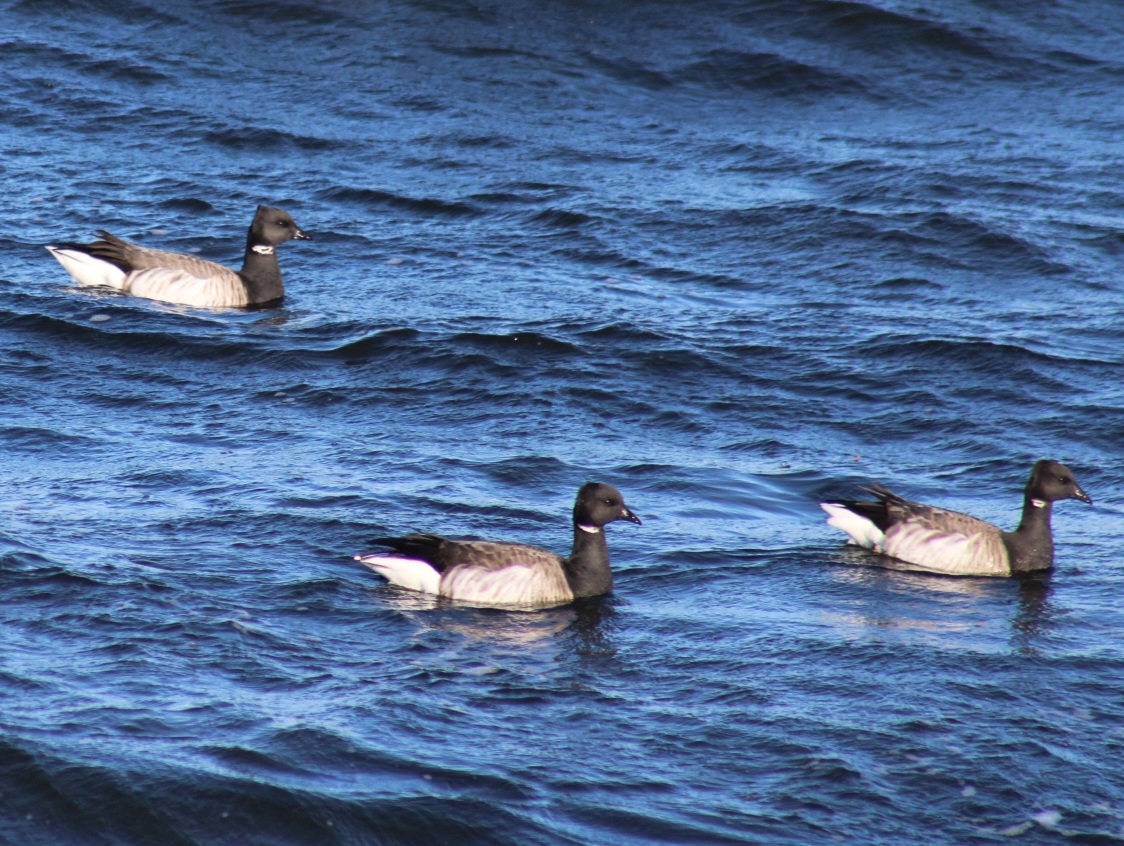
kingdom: Animalia
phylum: Chordata
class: Aves
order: Anseriformes
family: Anatidae
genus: Branta
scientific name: Branta bernicla
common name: Brant goose
